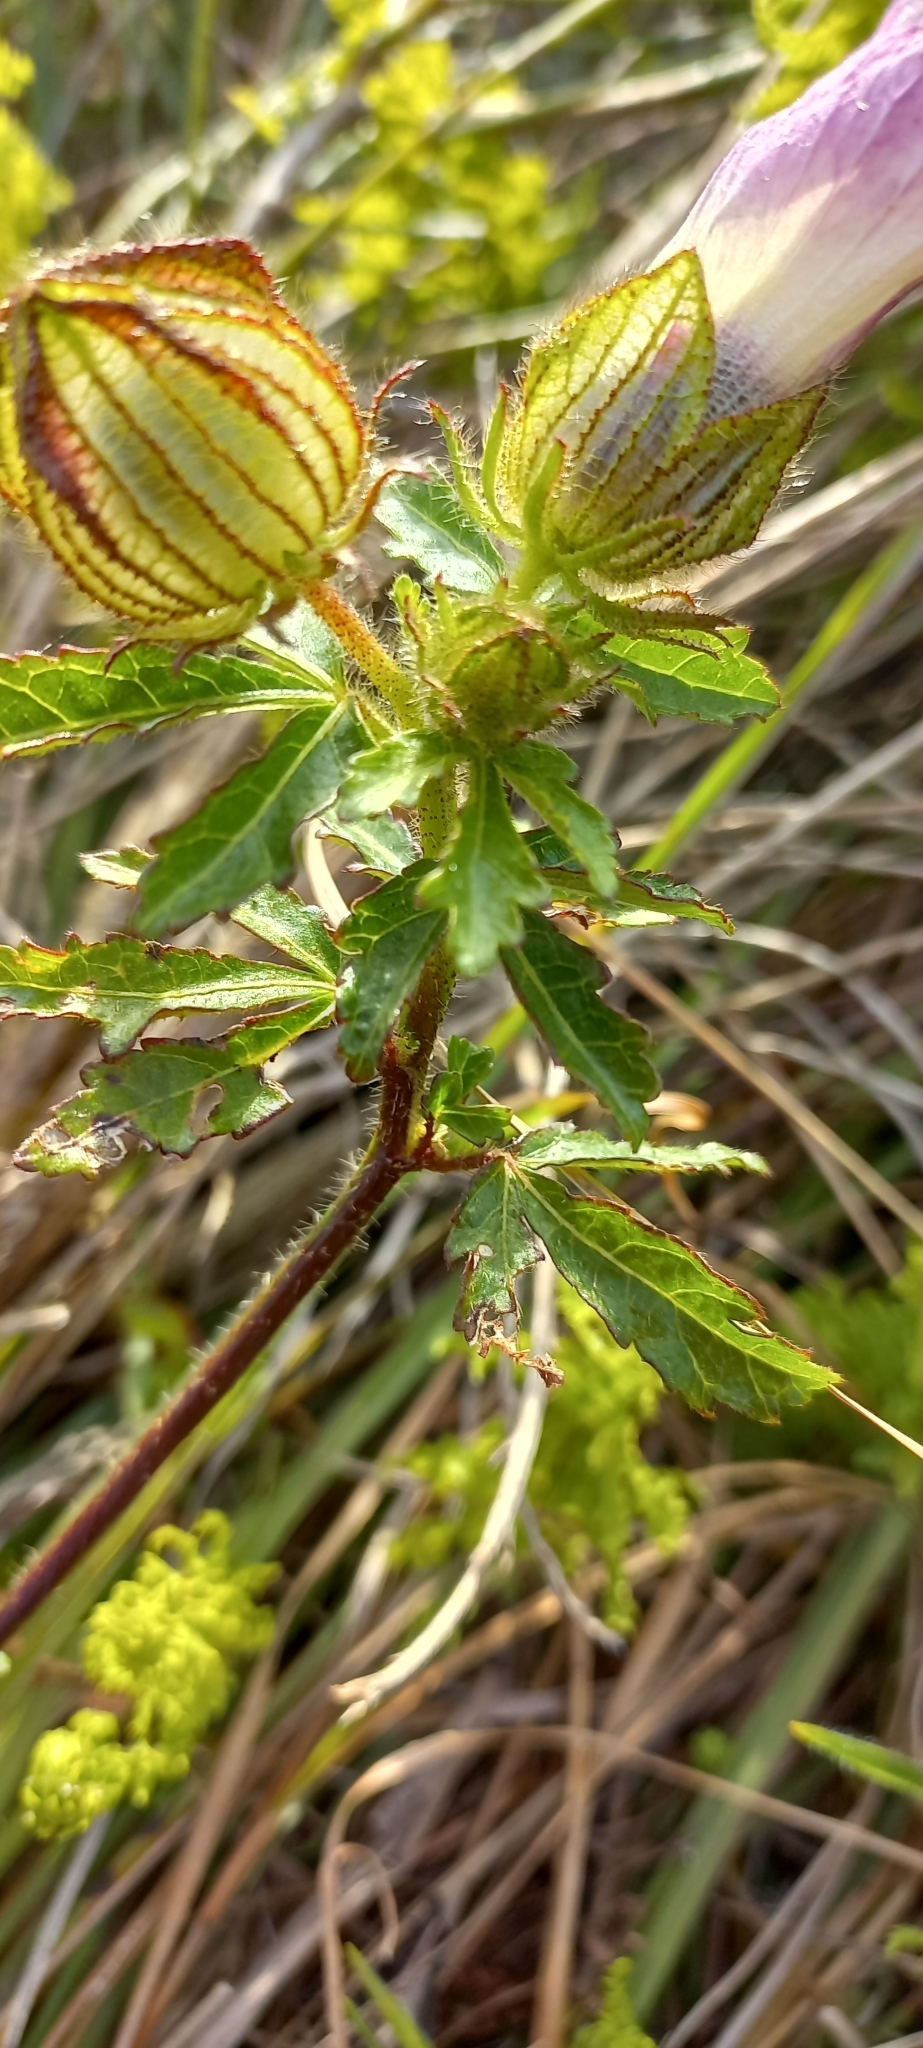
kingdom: Plantae
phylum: Tracheophyta
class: Magnoliopsida
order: Malvales
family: Malvaceae
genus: Hibiscus
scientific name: Hibiscus trionum
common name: Bladder ketmia
